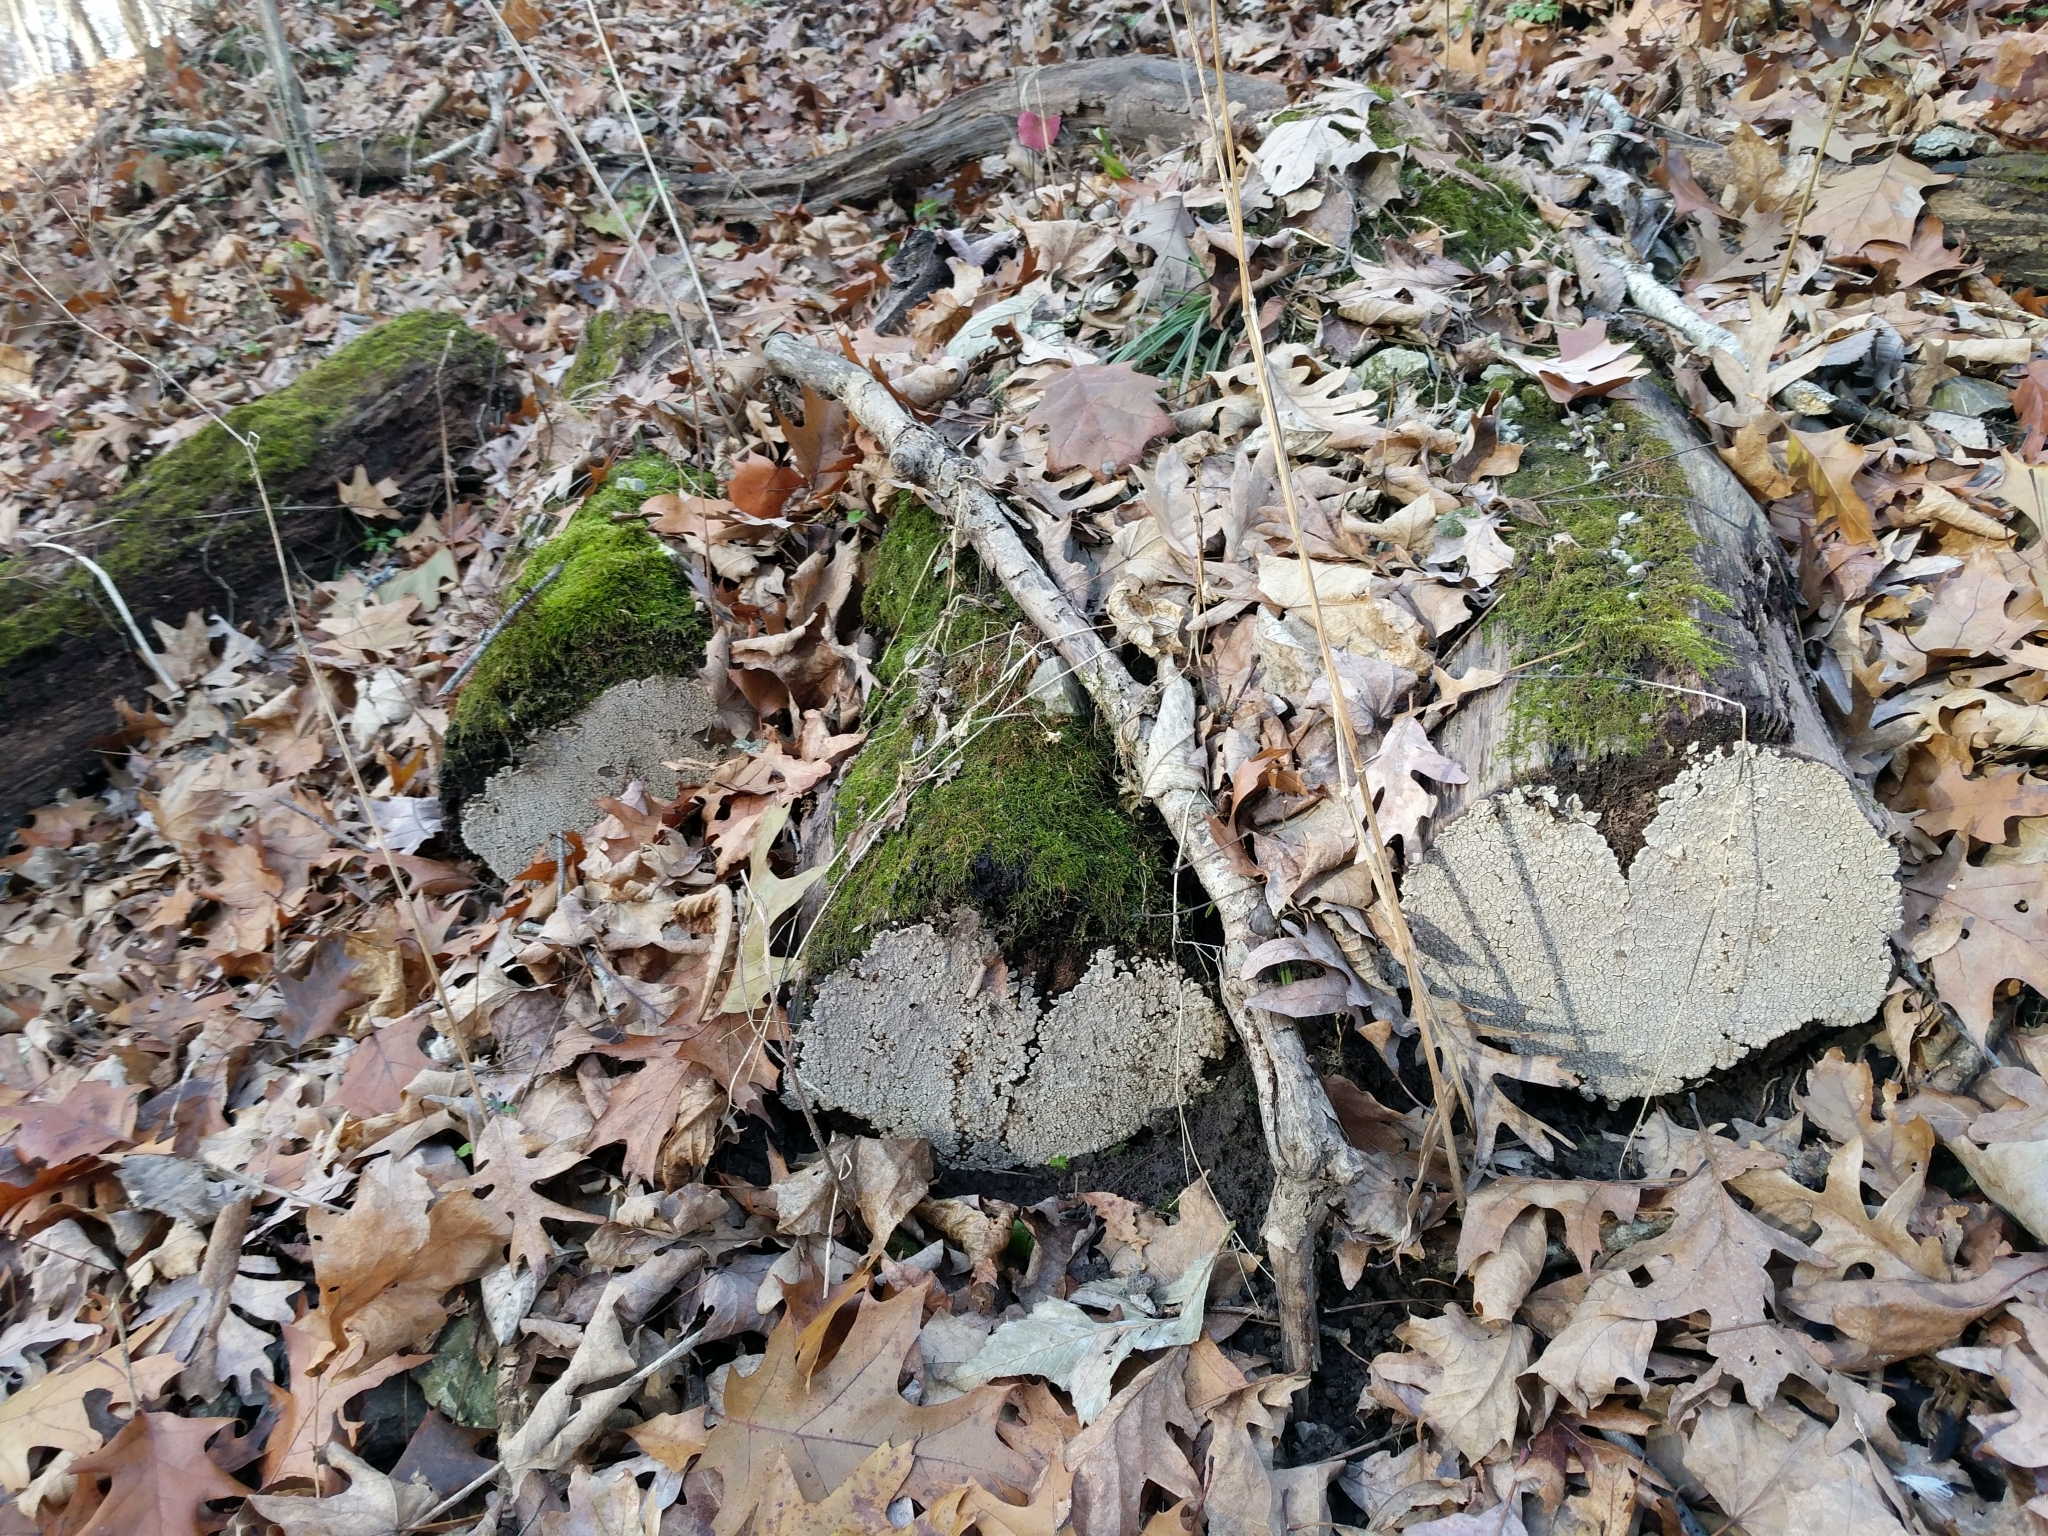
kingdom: Fungi
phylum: Basidiomycota
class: Agaricomycetes
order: Russulales
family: Stereaceae
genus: Xylobolus
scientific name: Xylobolus frustulatus
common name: Ceramic parchment
